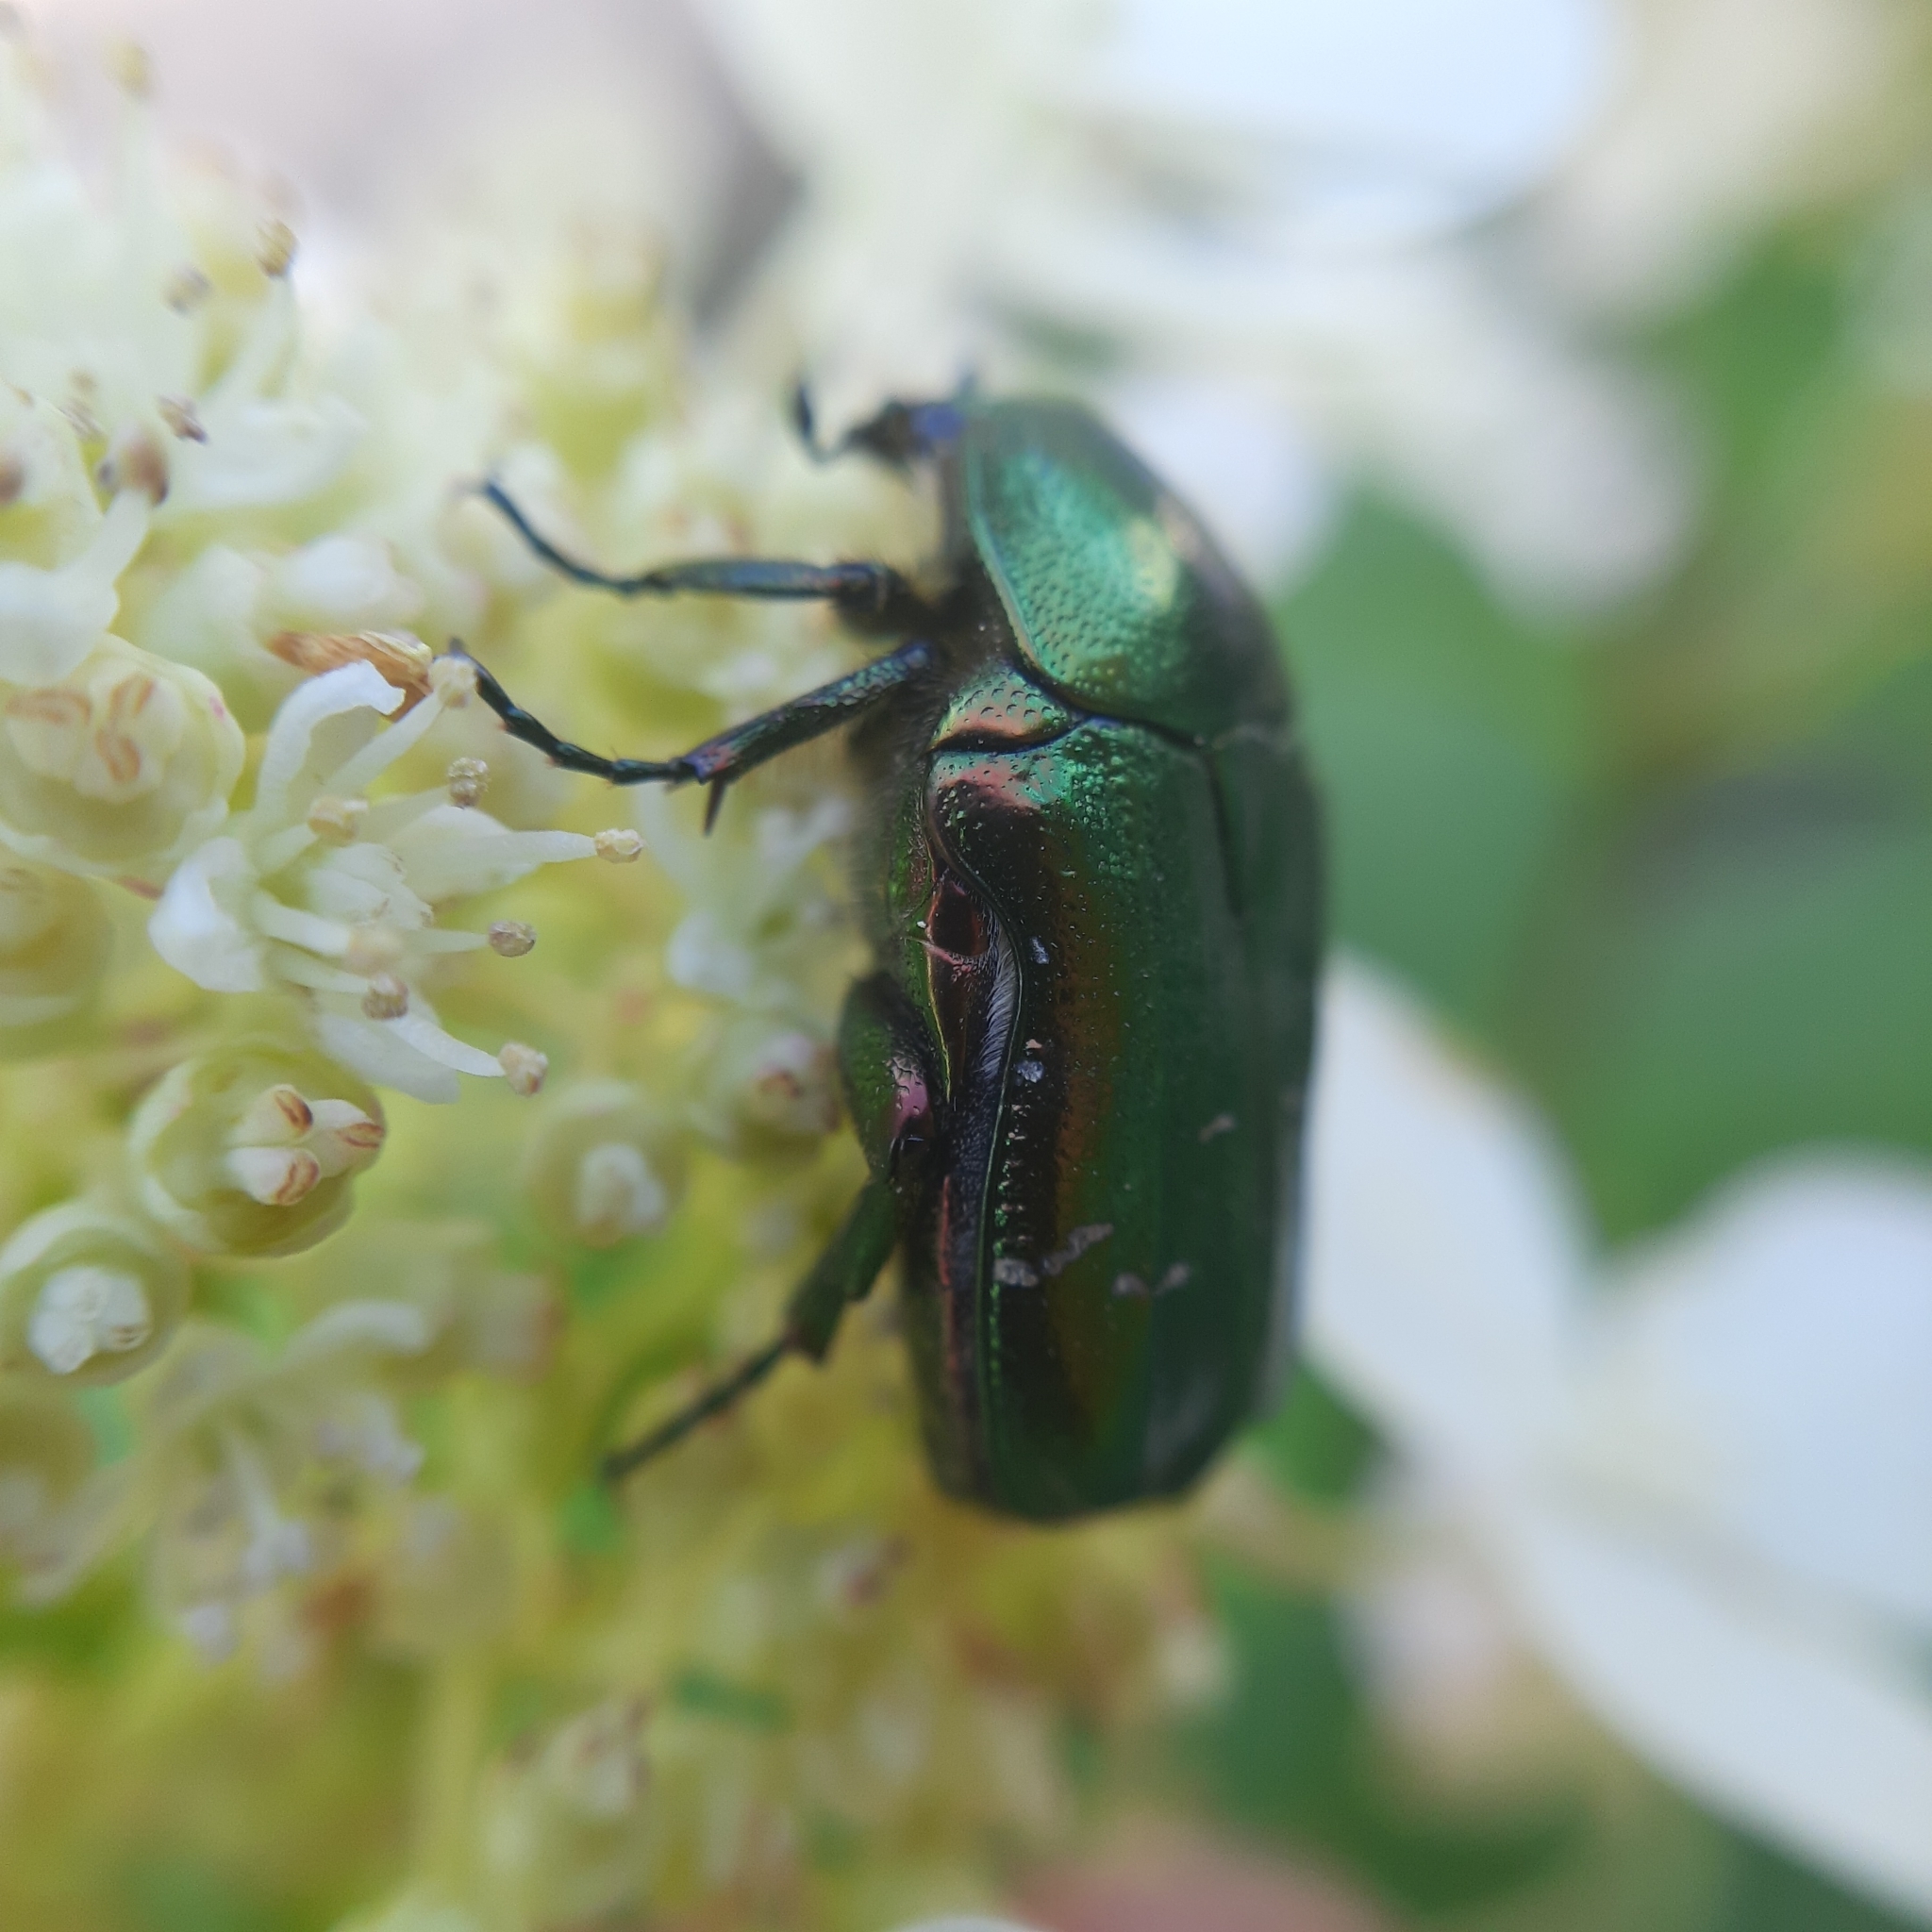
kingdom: Animalia
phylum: Arthropoda
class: Insecta
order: Coleoptera
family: Scarabaeidae
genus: Cetonia
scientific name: Cetonia aurata
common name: Rose chafer
